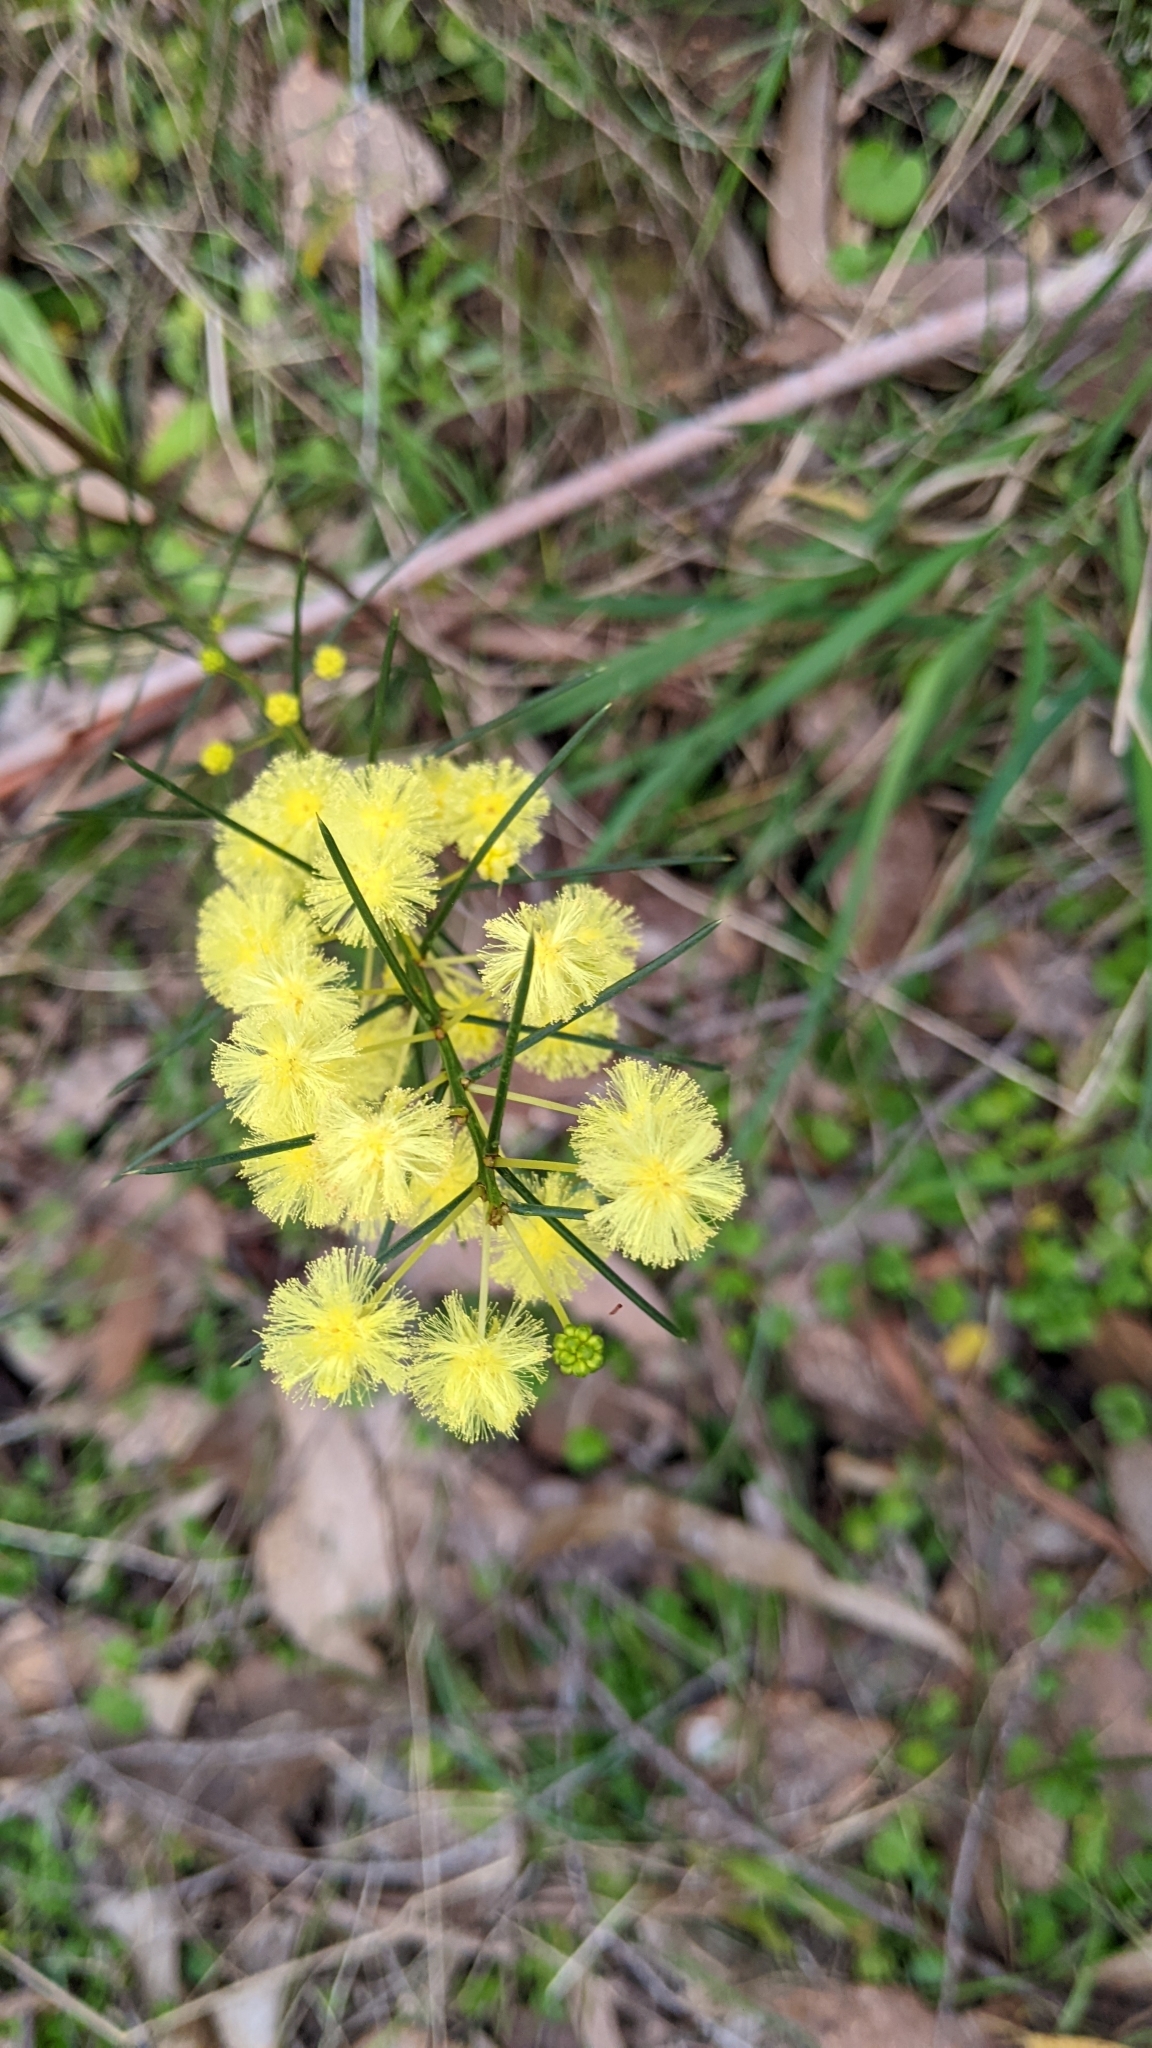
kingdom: Plantae
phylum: Tracheophyta
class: Magnoliopsida
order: Fabales
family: Fabaceae
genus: Acacia
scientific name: Acacia genistifolia
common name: Early wattle
